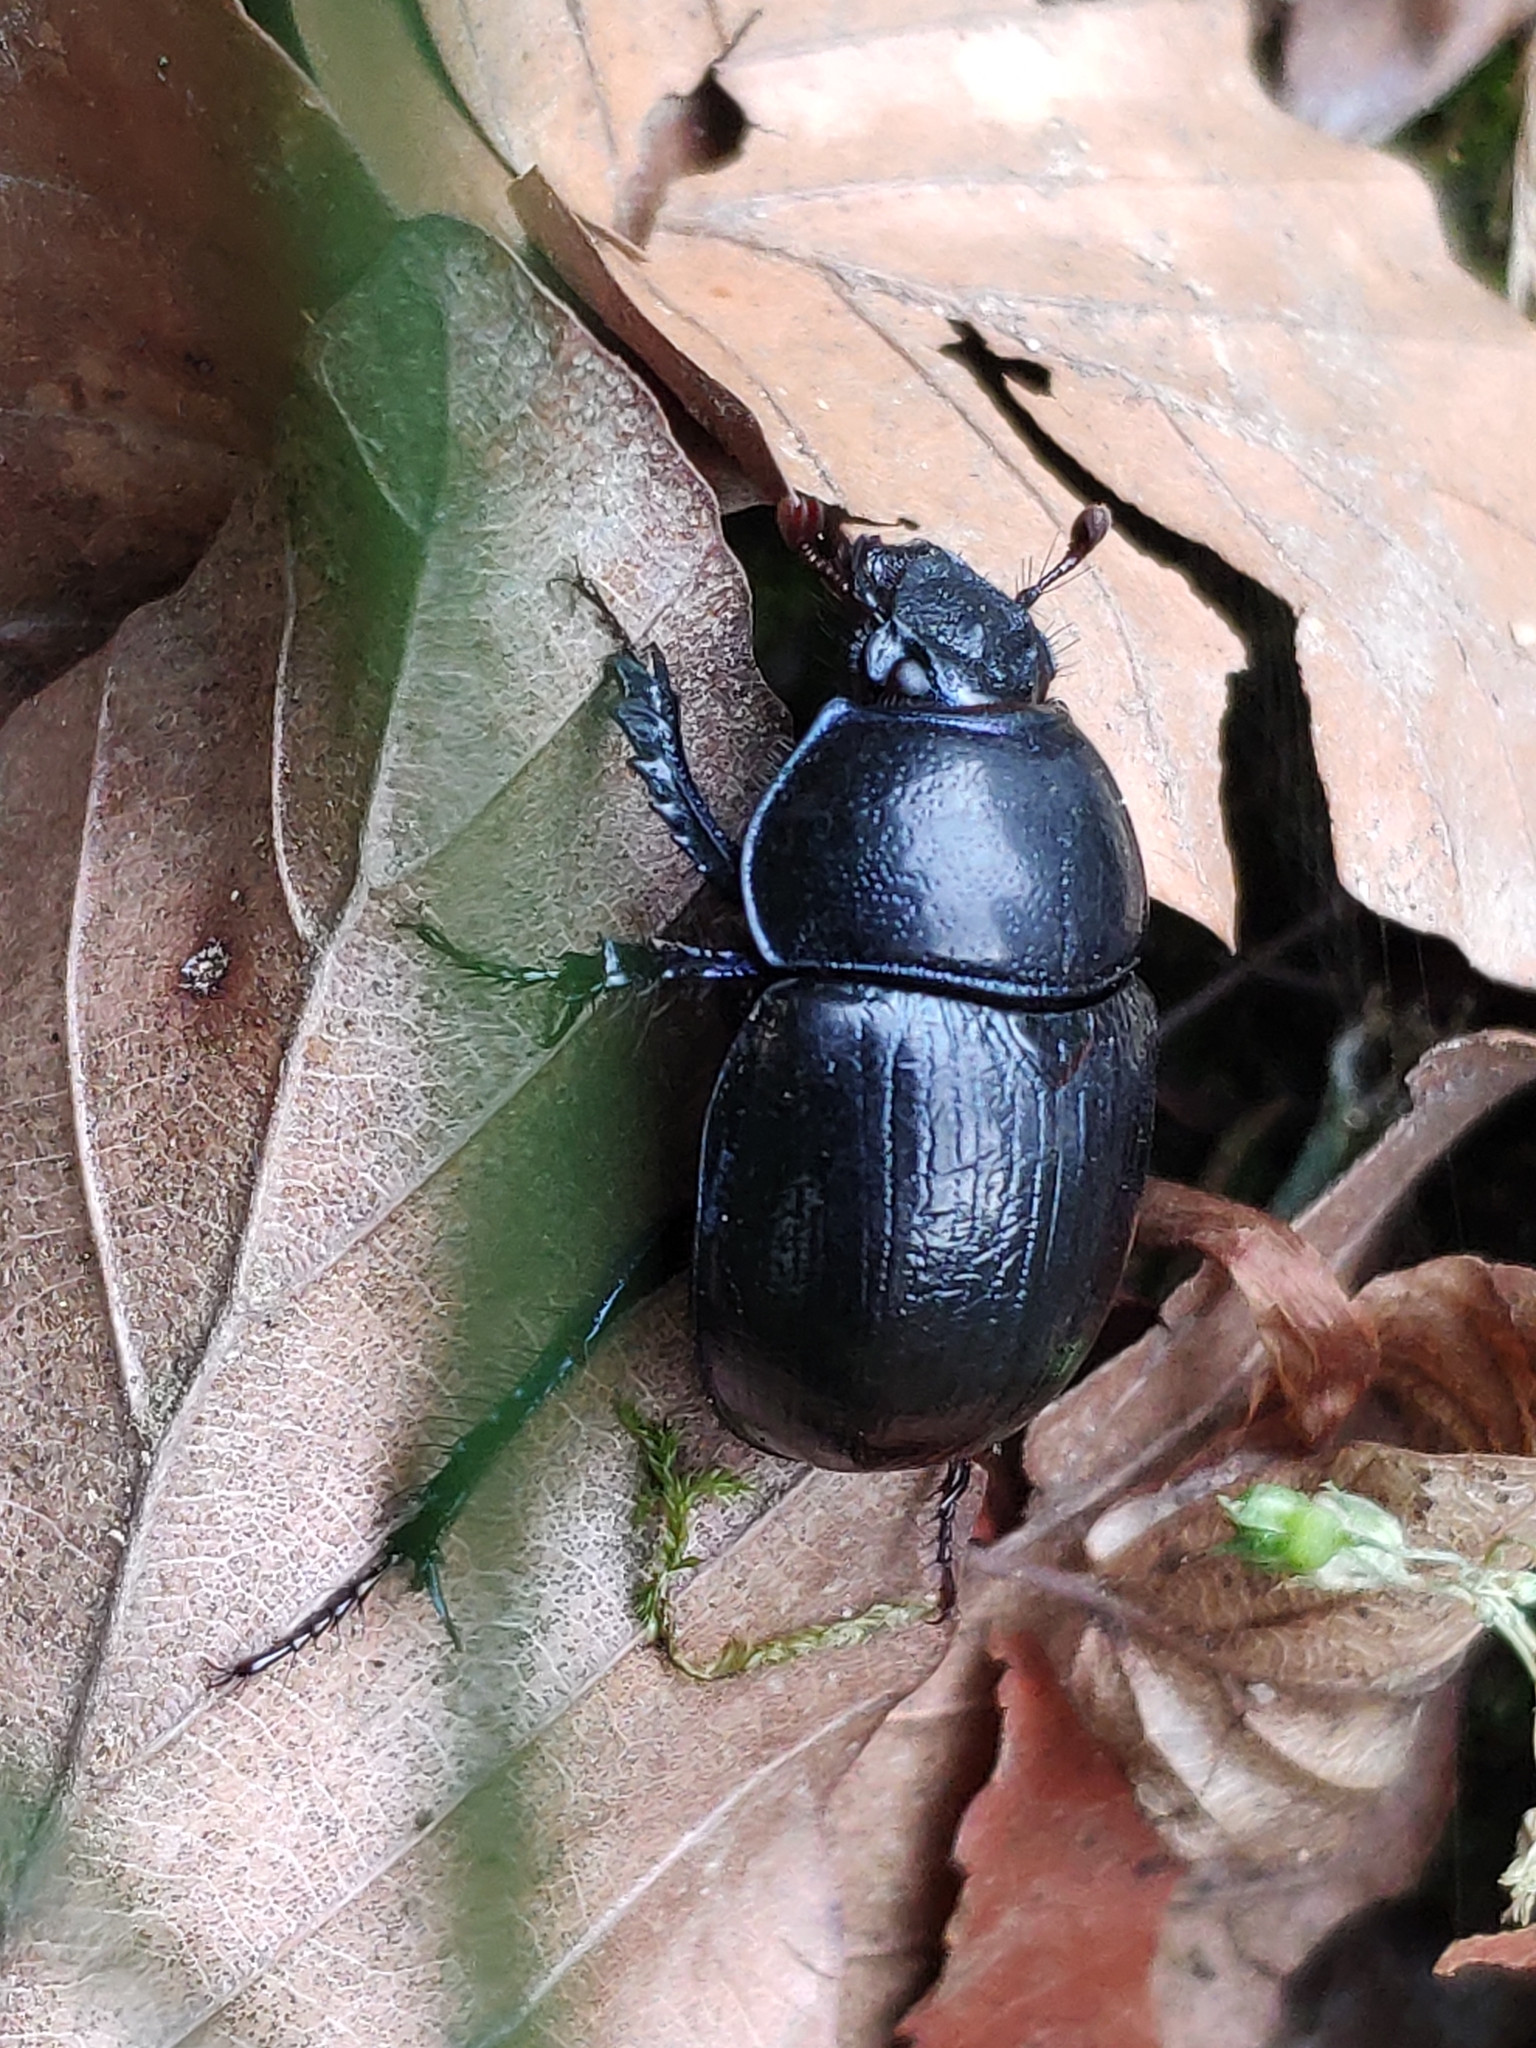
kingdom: Animalia
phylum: Arthropoda
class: Insecta
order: Coleoptera
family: Geotrupidae
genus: Anoplotrupes
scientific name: Anoplotrupes stercorosus
